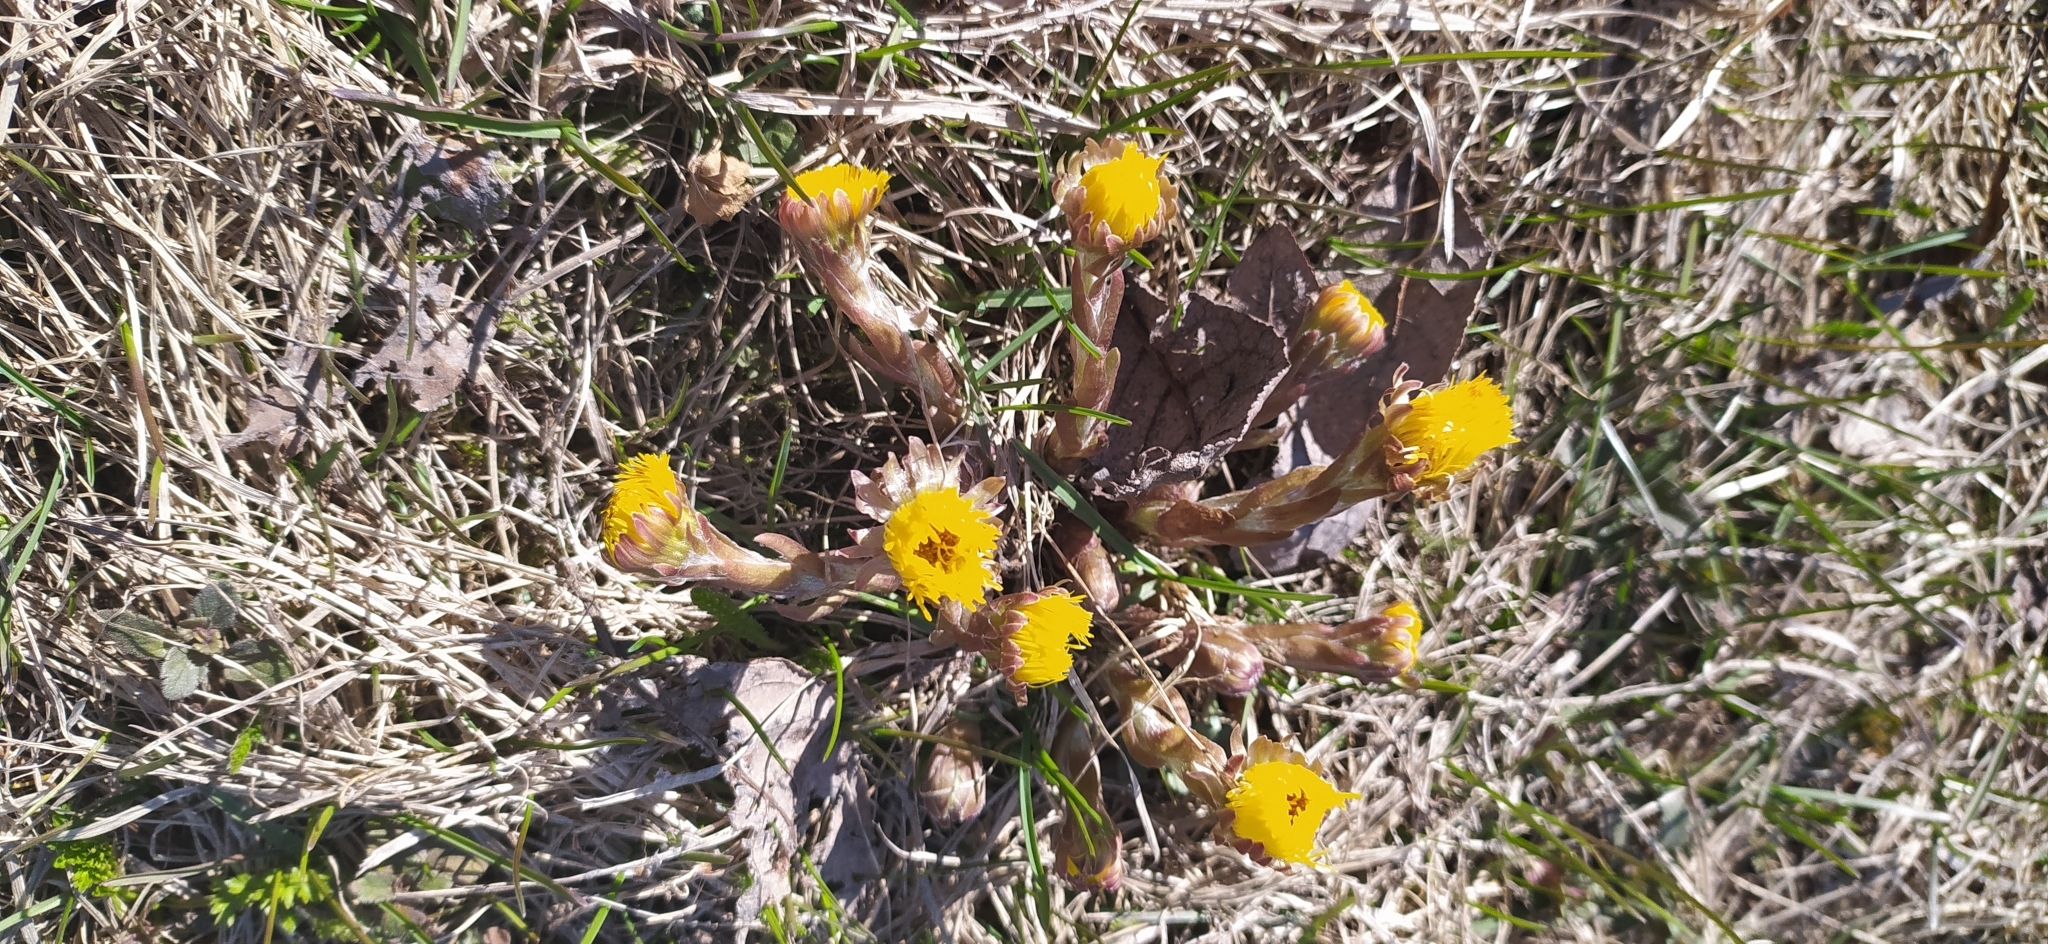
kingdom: Plantae
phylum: Tracheophyta
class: Magnoliopsida
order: Asterales
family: Asteraceae
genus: Tussilago
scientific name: Tussilago farfara
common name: Coltsfoot
